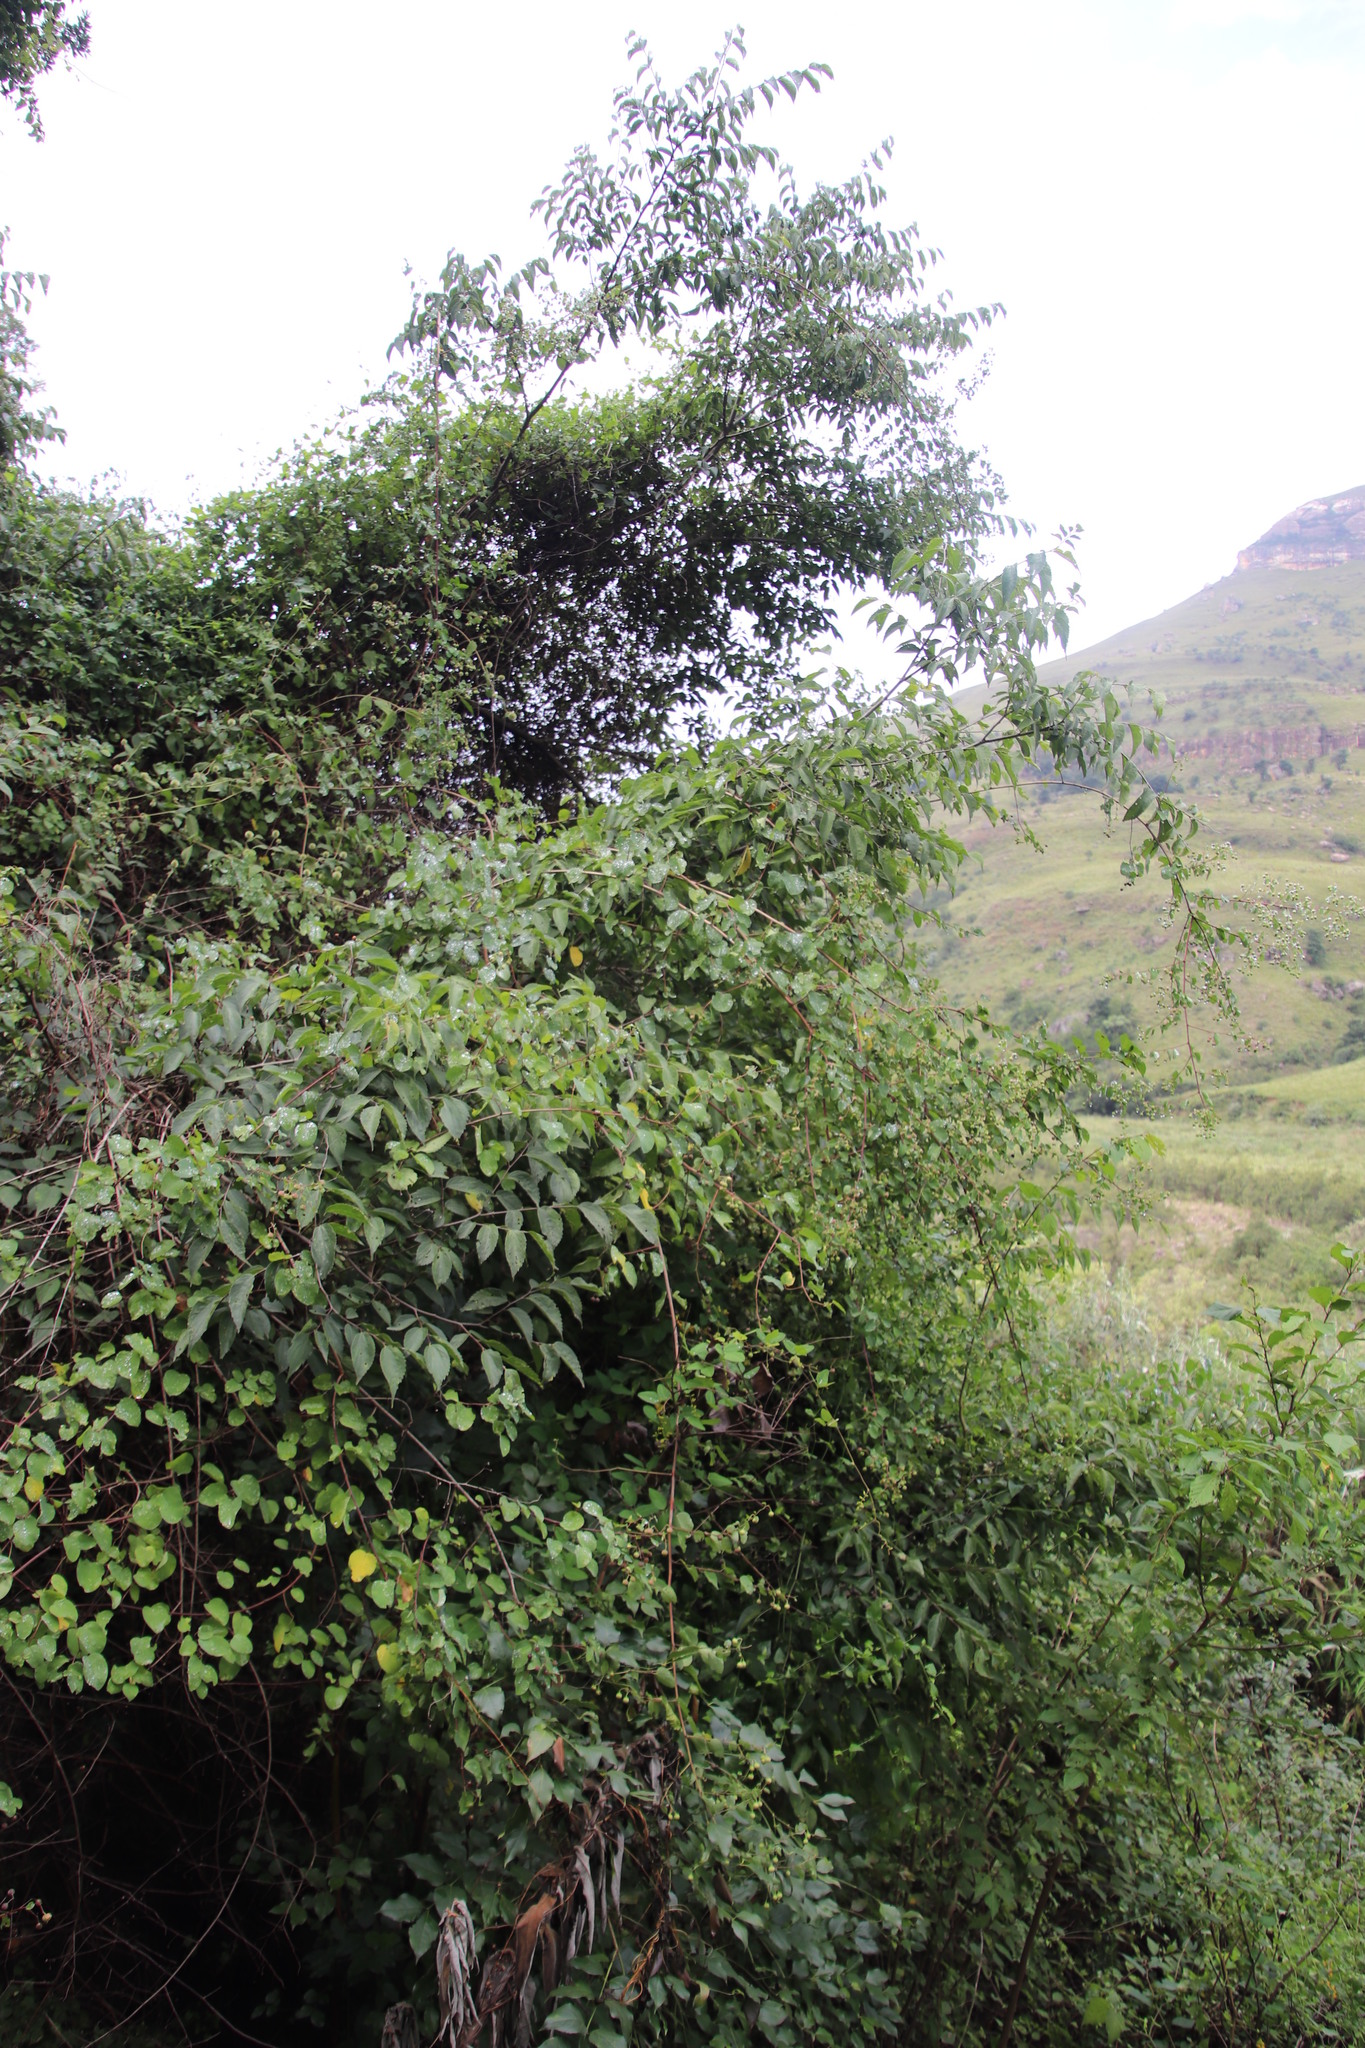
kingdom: Plantae
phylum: Tracheophyta
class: Magnoliopsida
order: Rosales
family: Rhamnaceae
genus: Helinus
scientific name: Helinus integrifolius
